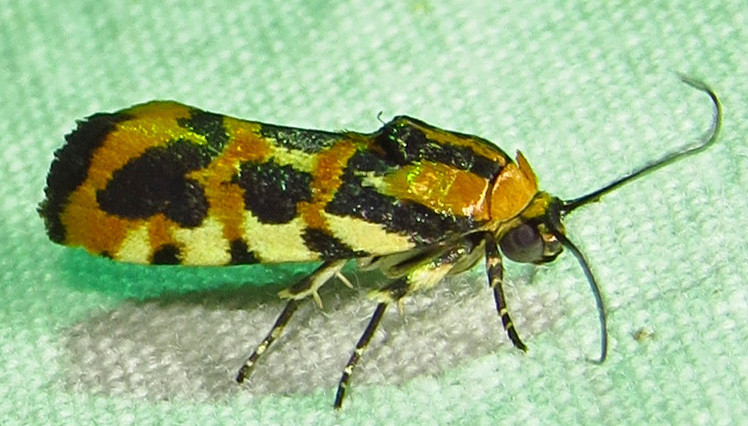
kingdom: Animalia
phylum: Arthropoda
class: Insecta
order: Lepidoptera
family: Noctuidae
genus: Acontia
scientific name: Acontia leo
